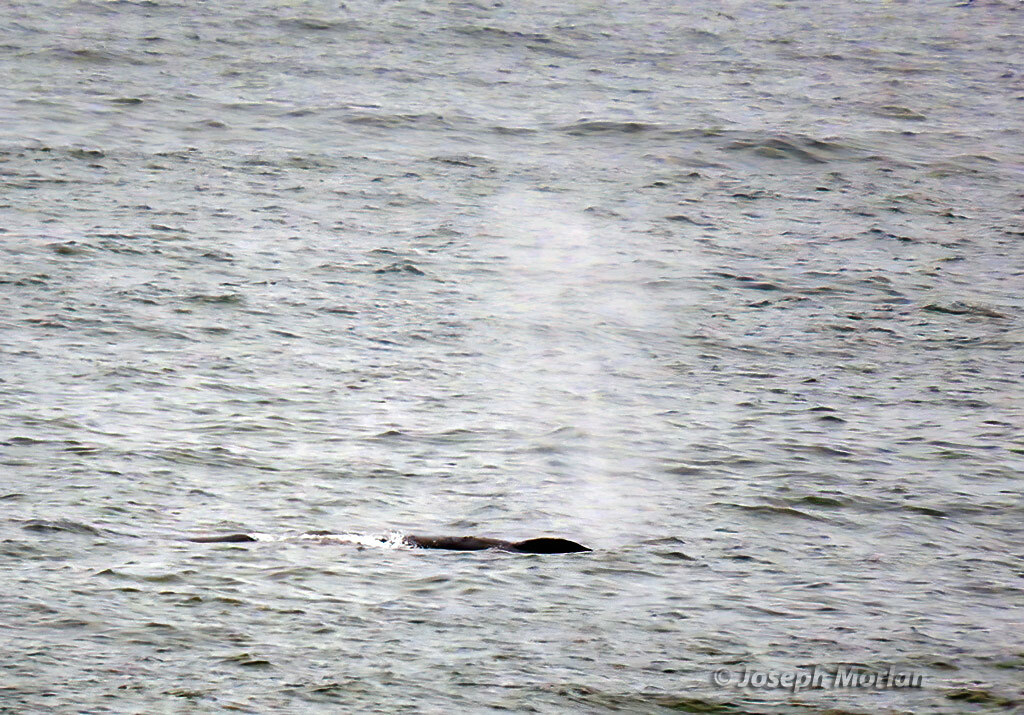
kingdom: Animalia
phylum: Chordata
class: Mammalia
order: Cetacea
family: Balaenopteridae
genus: Megaptera
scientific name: Megaptera novaeangliae
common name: Humpback whale
